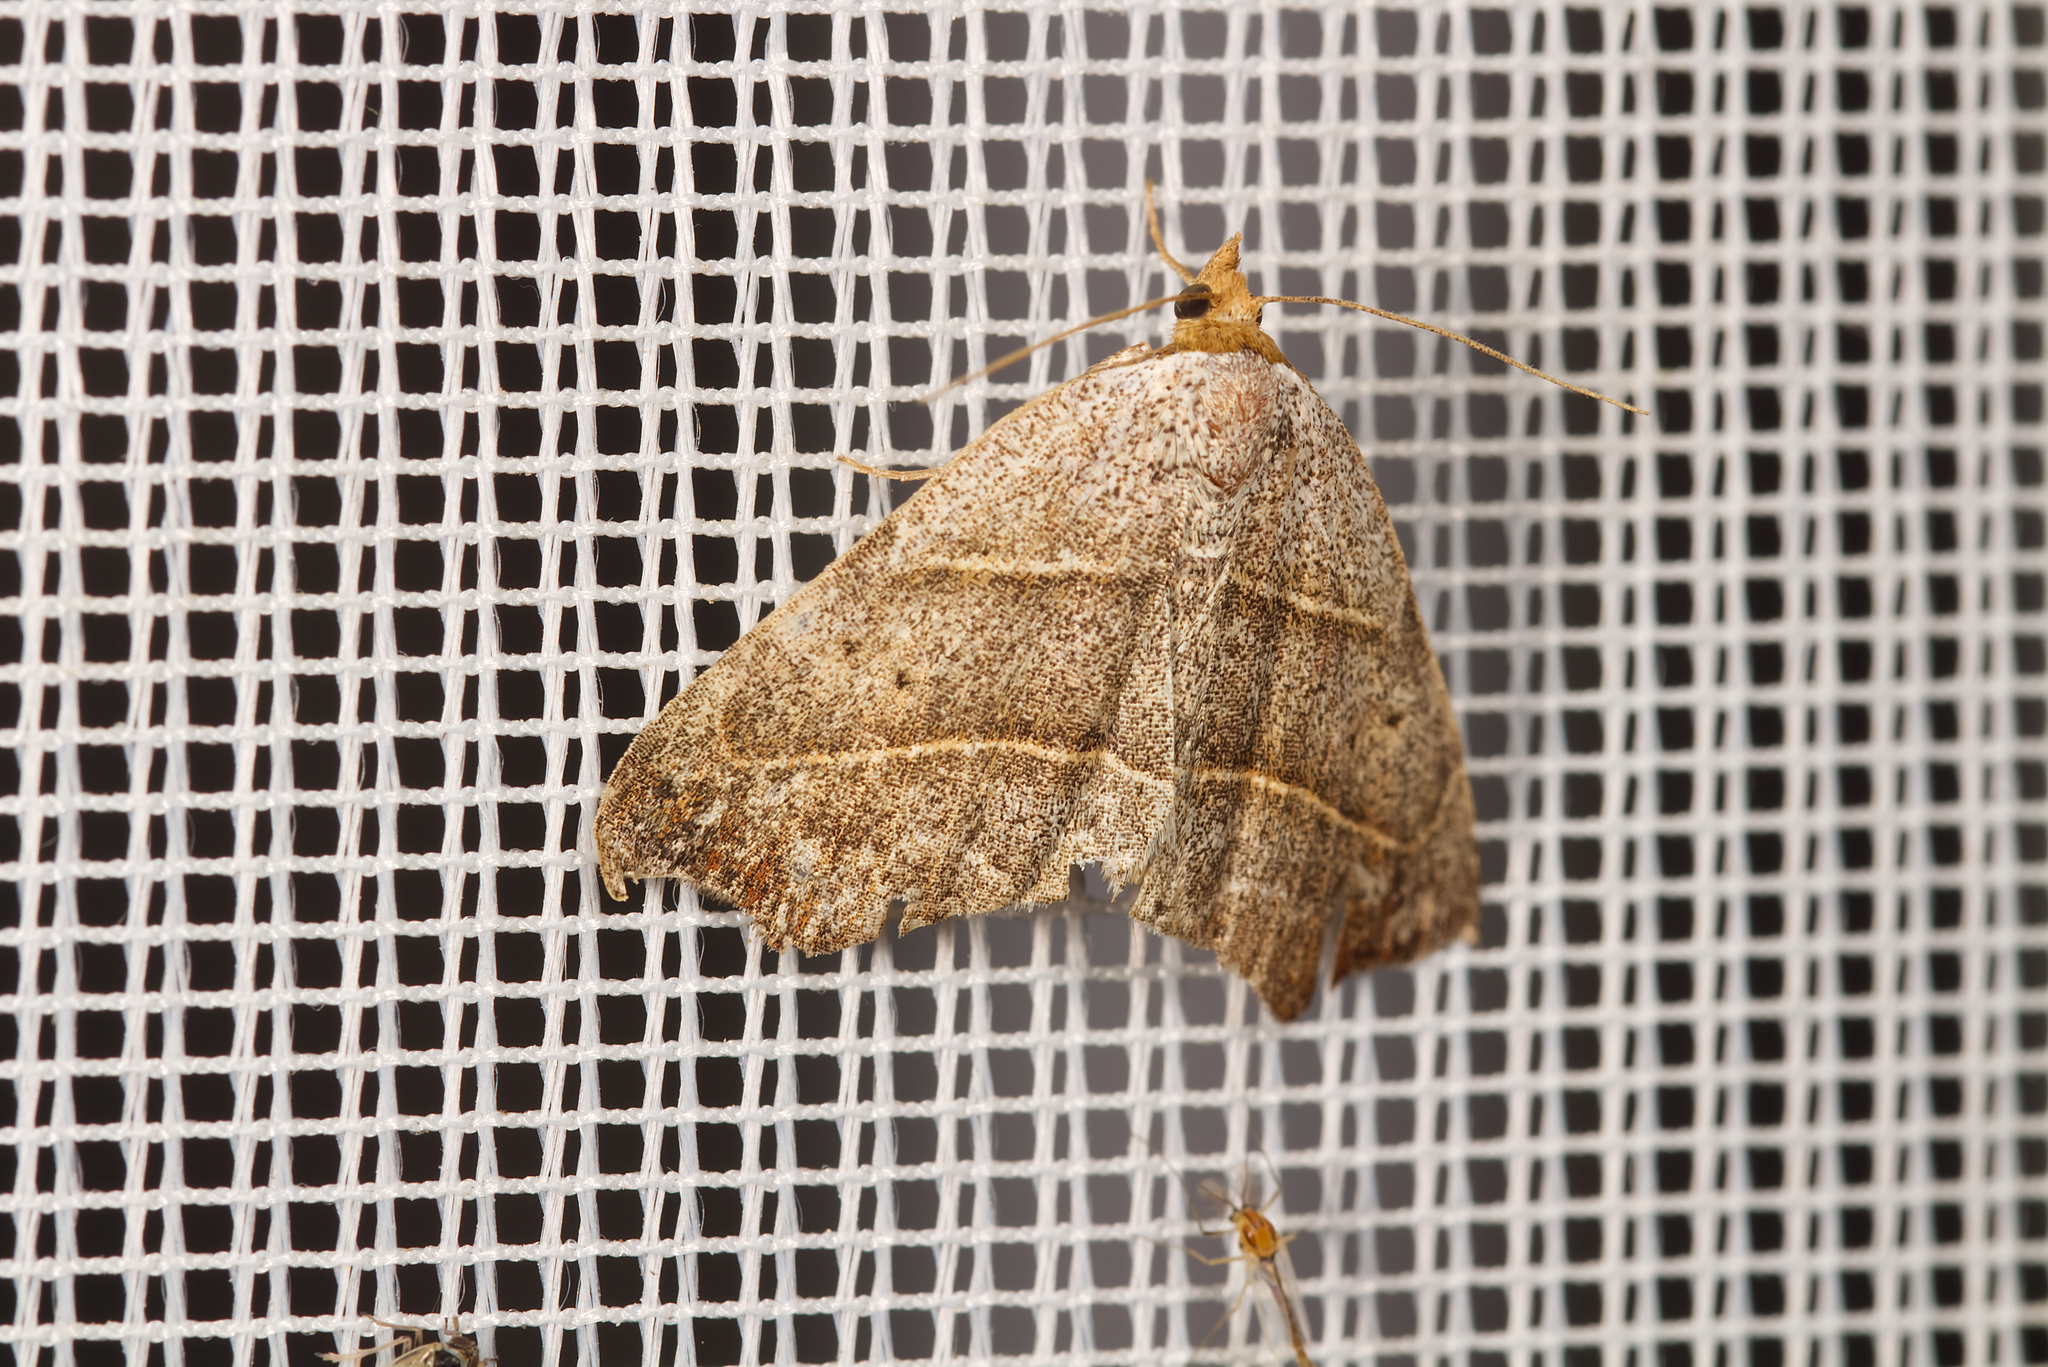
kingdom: Animalia
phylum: Arthropoda
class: Insecta
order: Lepidoptera
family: Erebidae
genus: Laspeyria
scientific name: Laspeyria flexula
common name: Beautiful hook-tip
